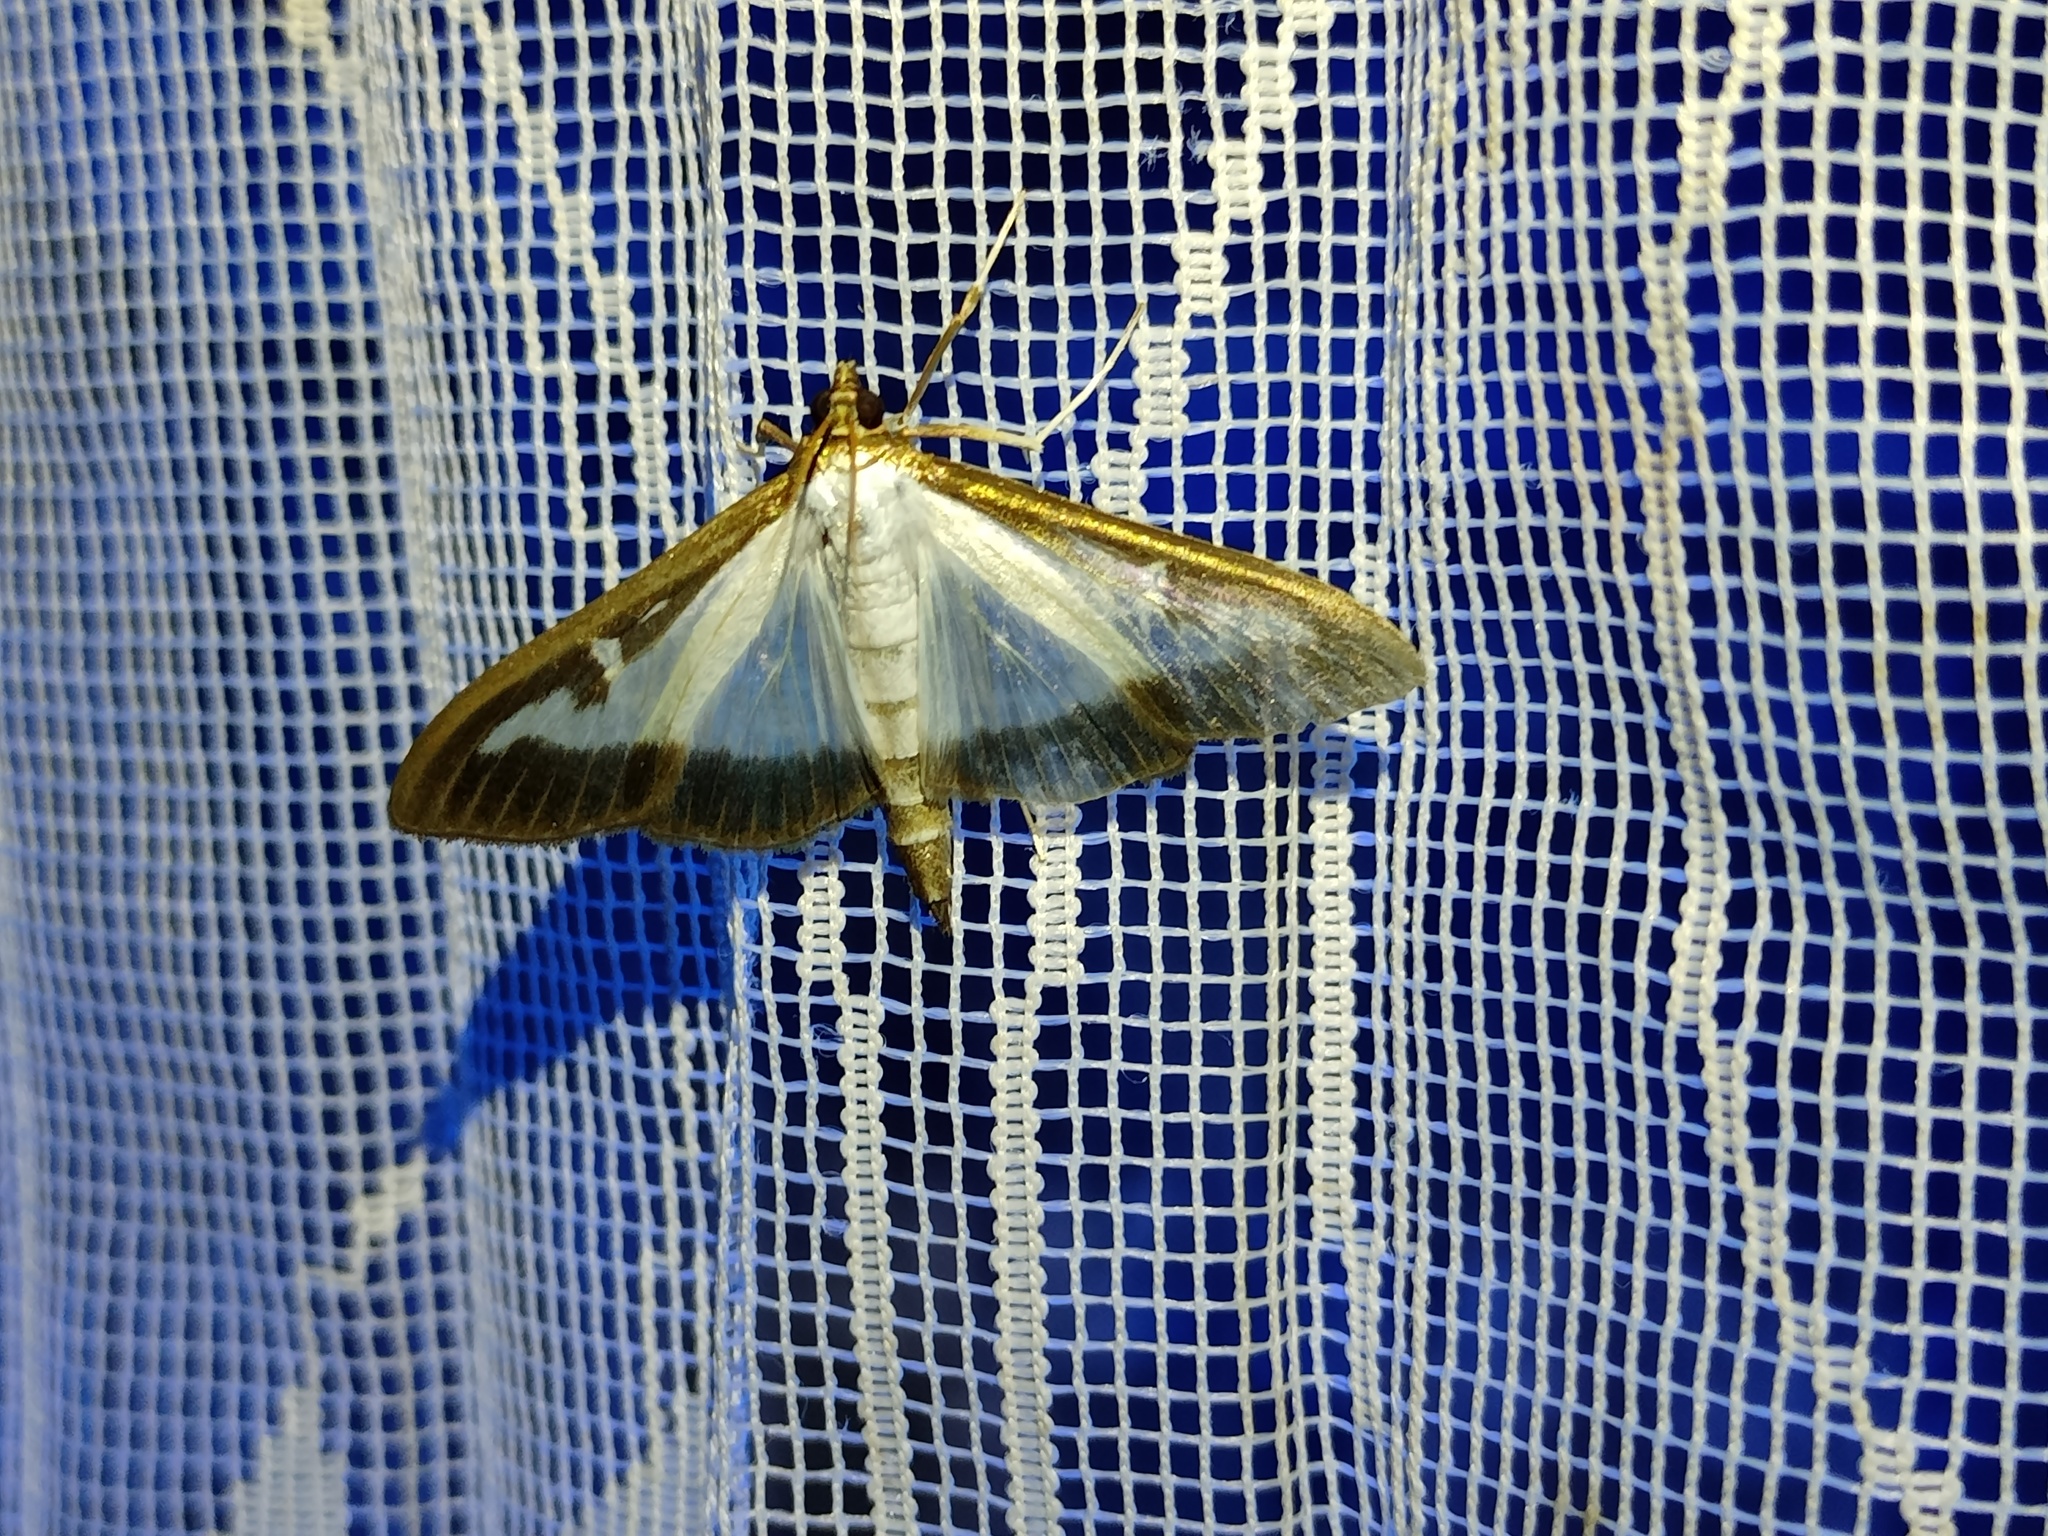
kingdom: Animalia
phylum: Arthropoda
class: Insecta
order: Lepidoptera
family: Crambidae
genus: Cydalima
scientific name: Cydalima perspectalis
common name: Box tree moth
